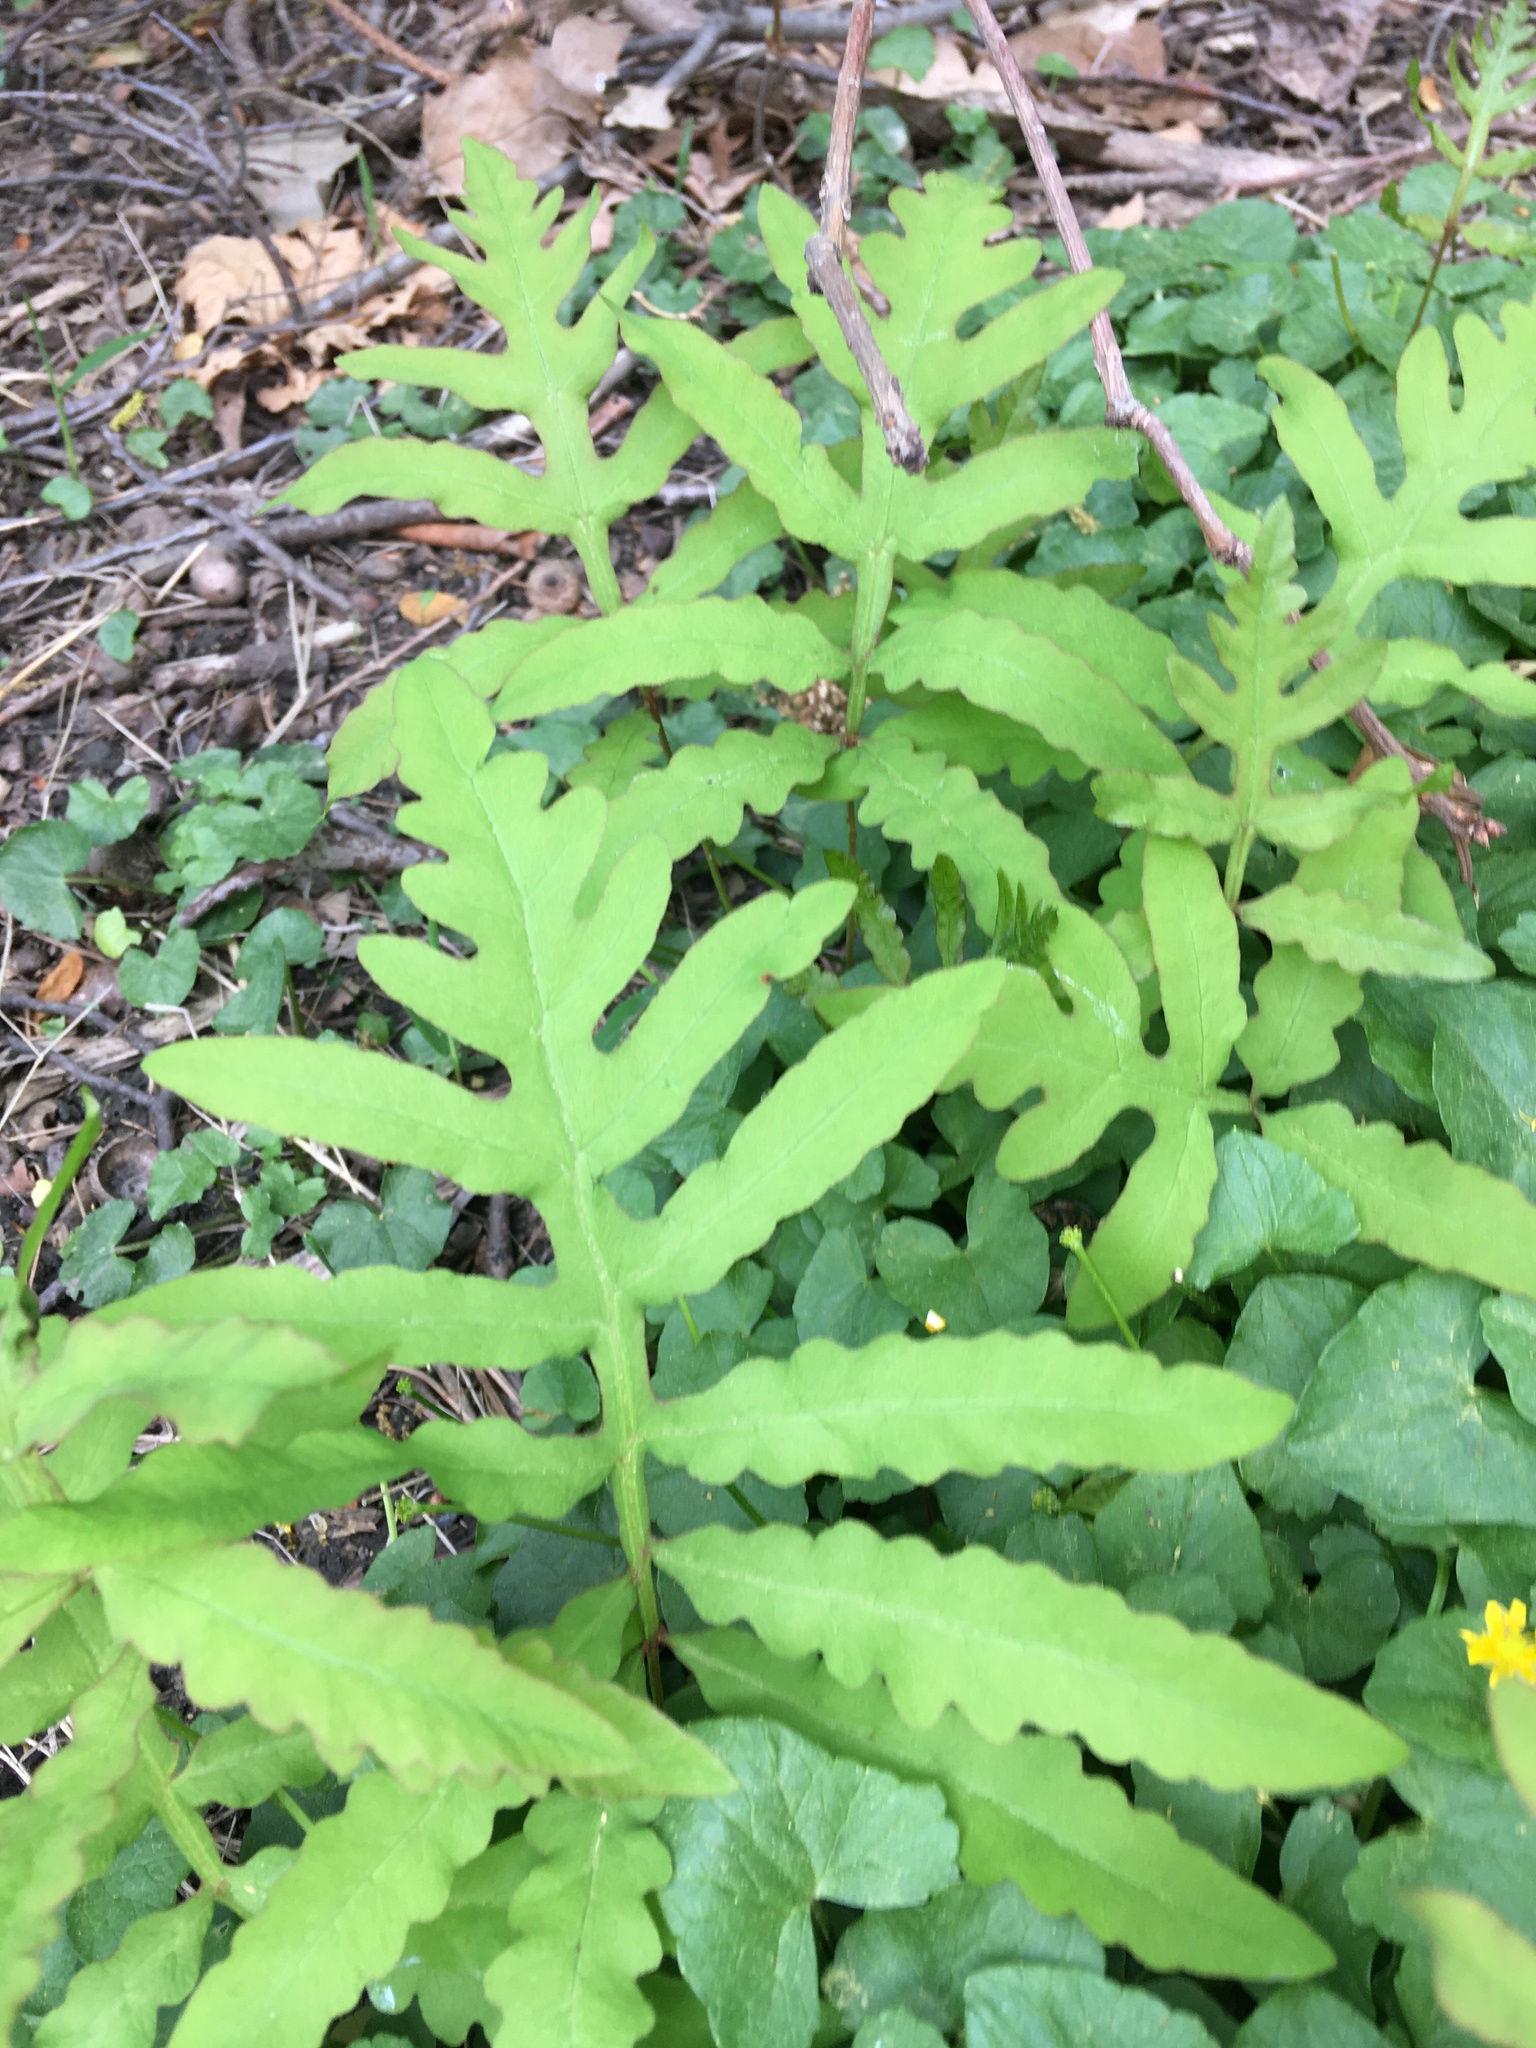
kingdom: Plantae
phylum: Tracheophyta
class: Polypodiopsida
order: Polypodiales
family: Onocleaceae
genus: Onoclea
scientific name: Onoclea sensibilis
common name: Sensitive fern
